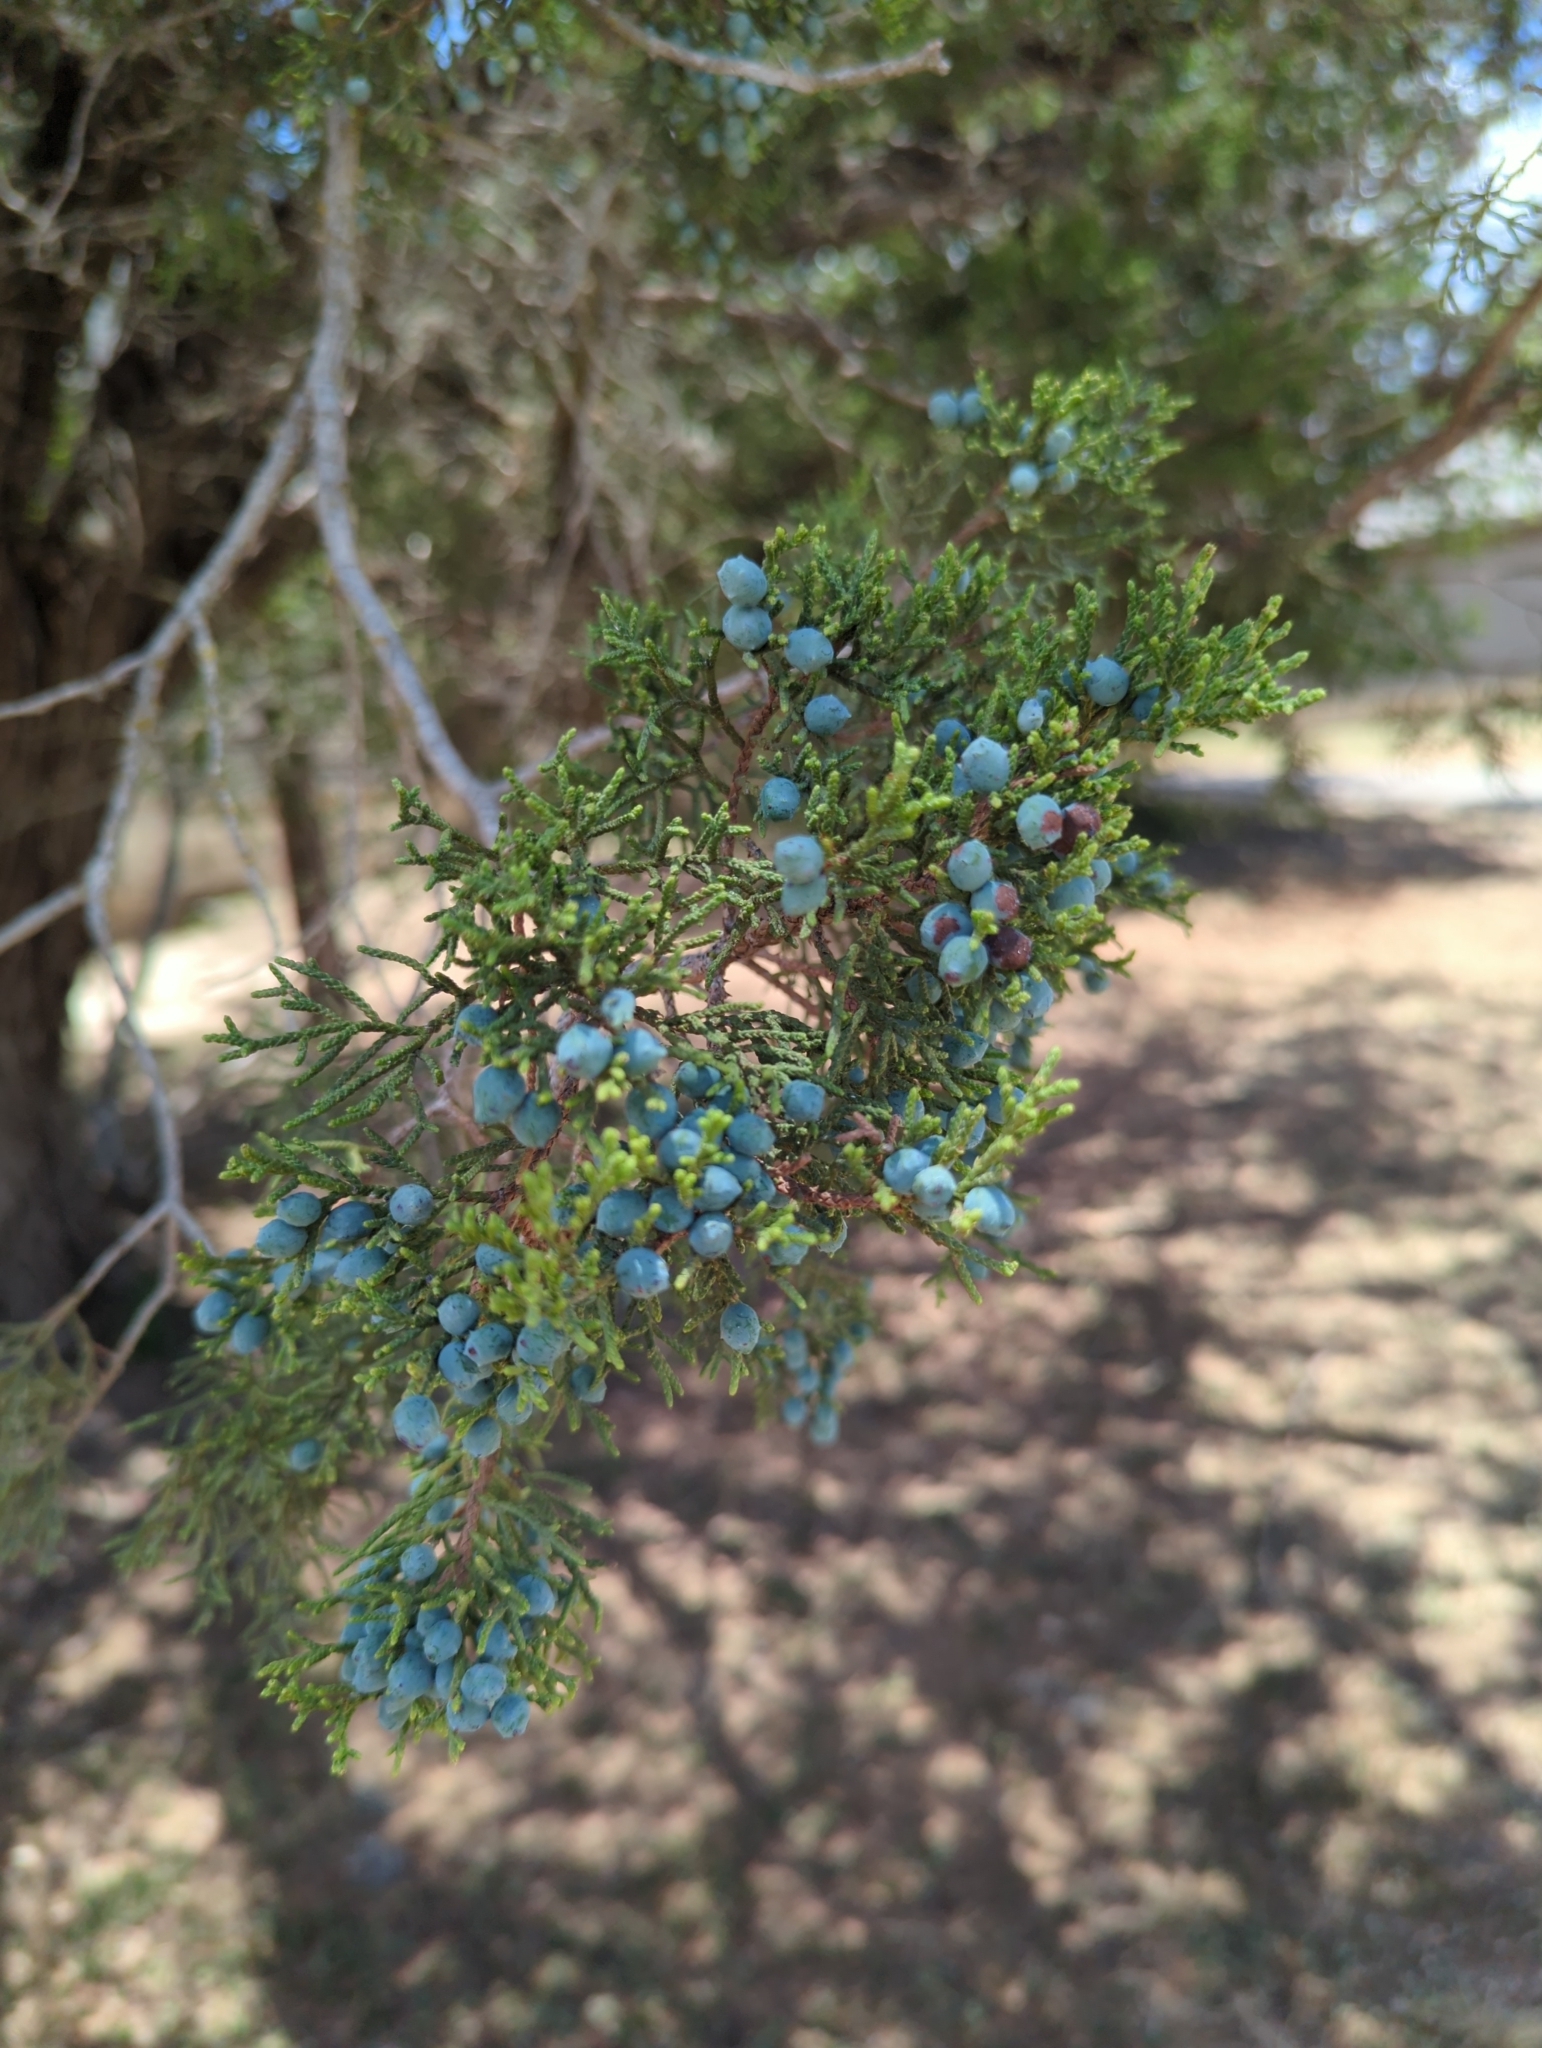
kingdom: Plantae
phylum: Tracheophyta
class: Pinopsida
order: Pinales
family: Cupressaceae
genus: Juniperus
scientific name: Juniperus ashei
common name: Mexican juniper
